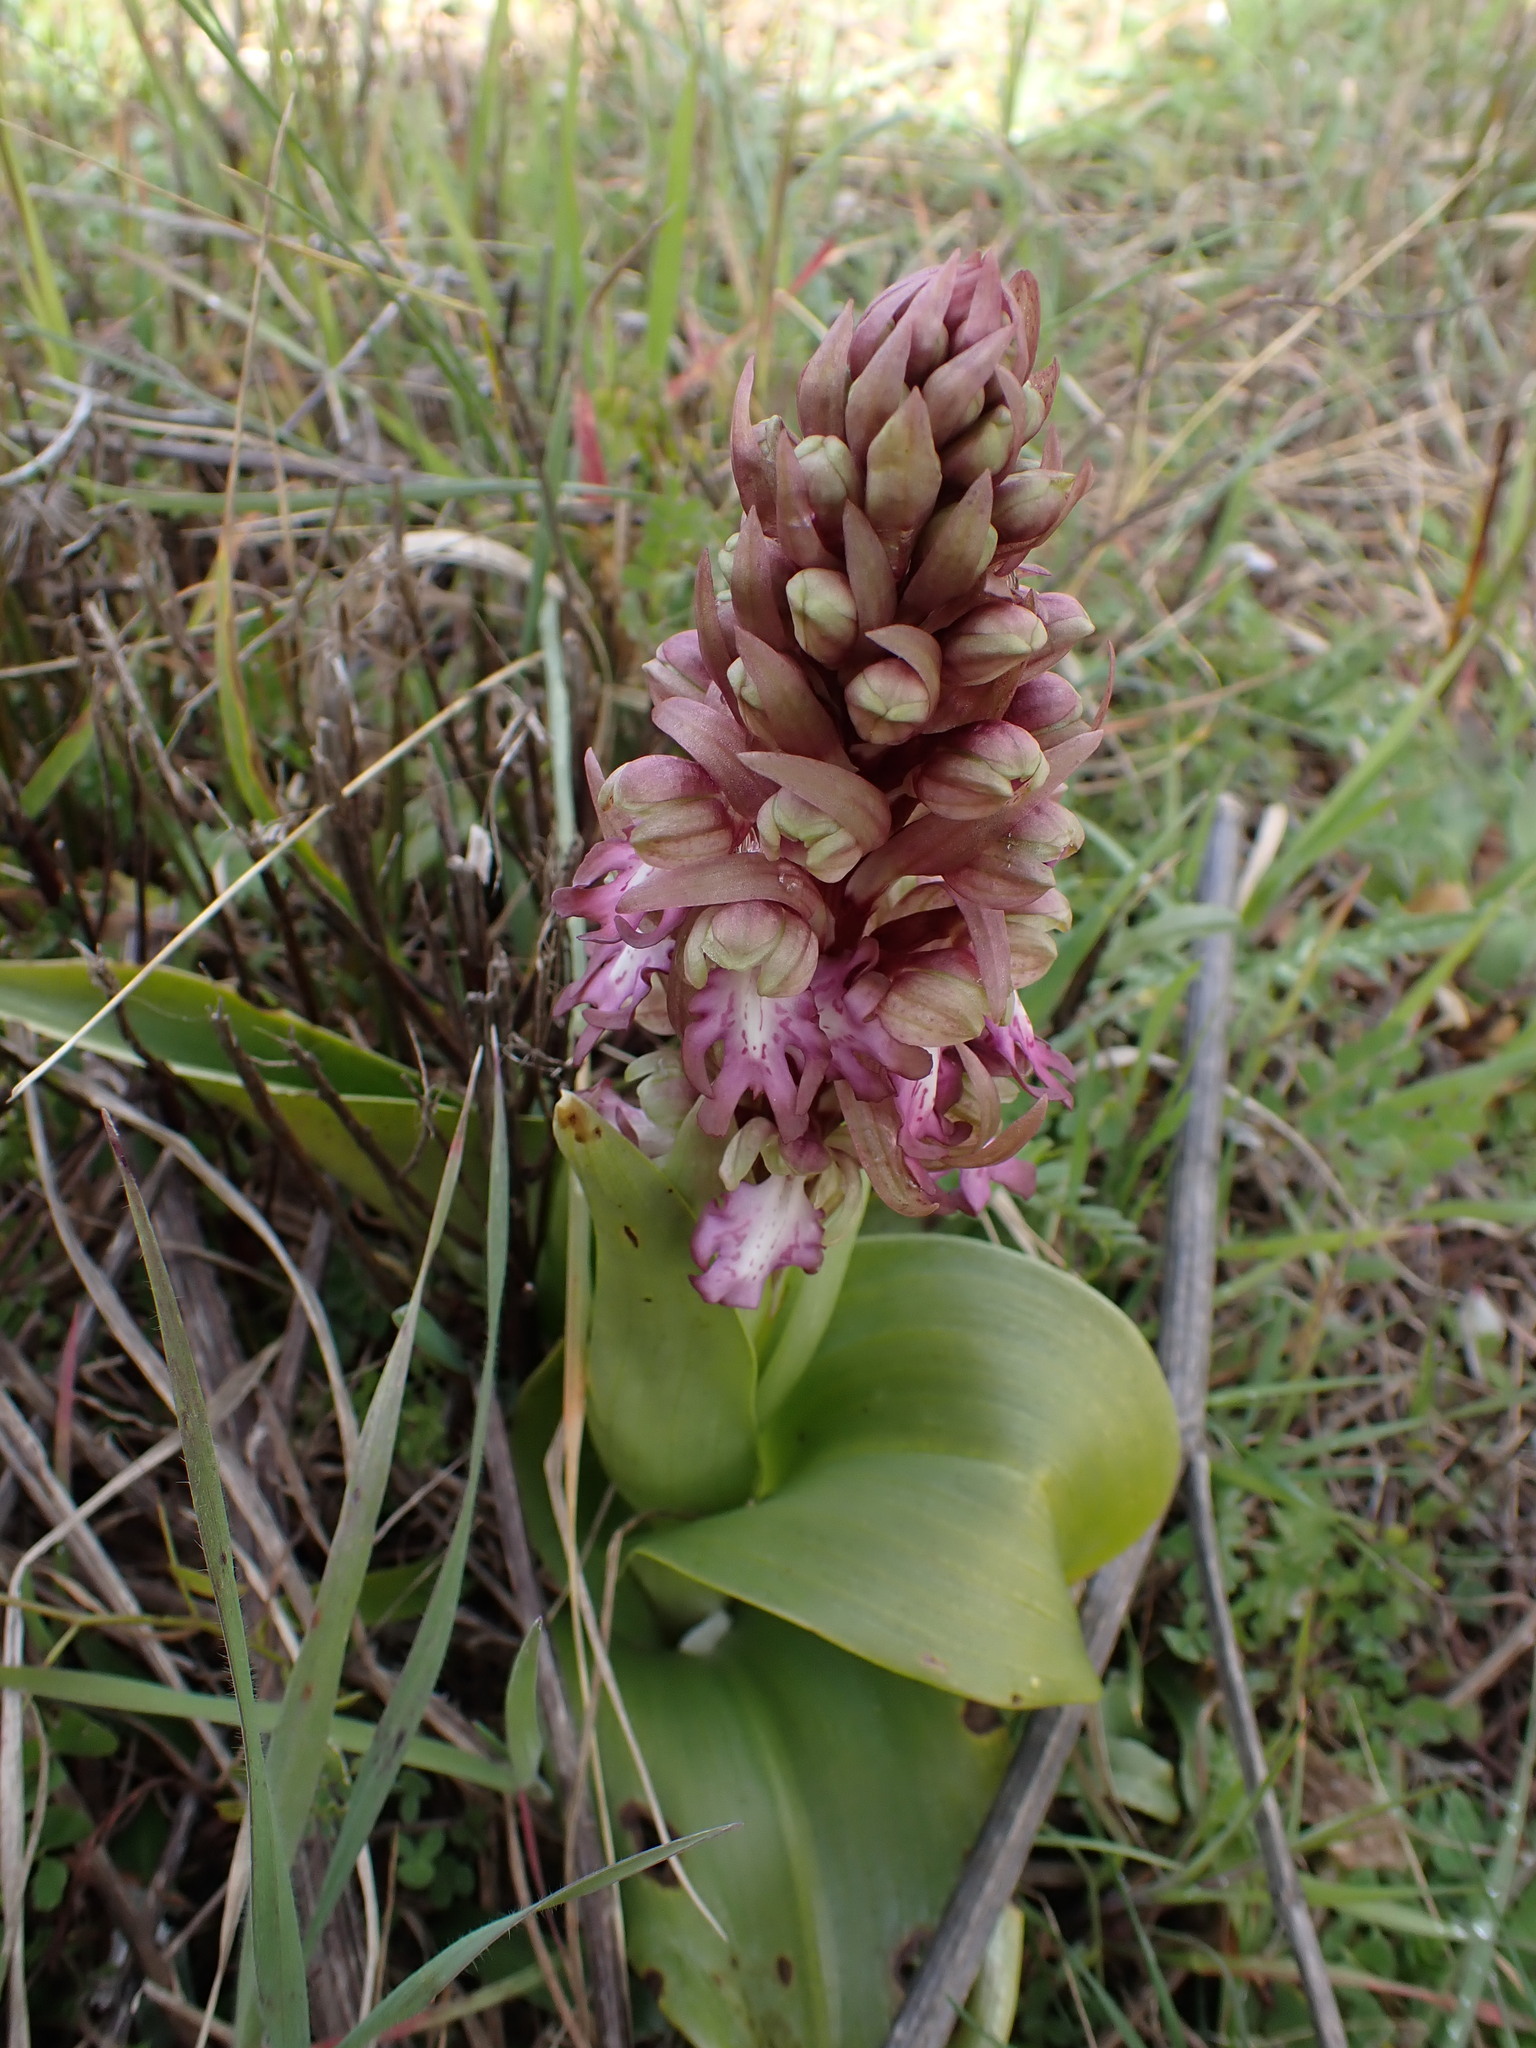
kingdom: Plantae
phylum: Tracheophyta
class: Liliopsida
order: Asparagales
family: Orchidaceae
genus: Himantoglossum
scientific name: Himantoglossum robertianum
